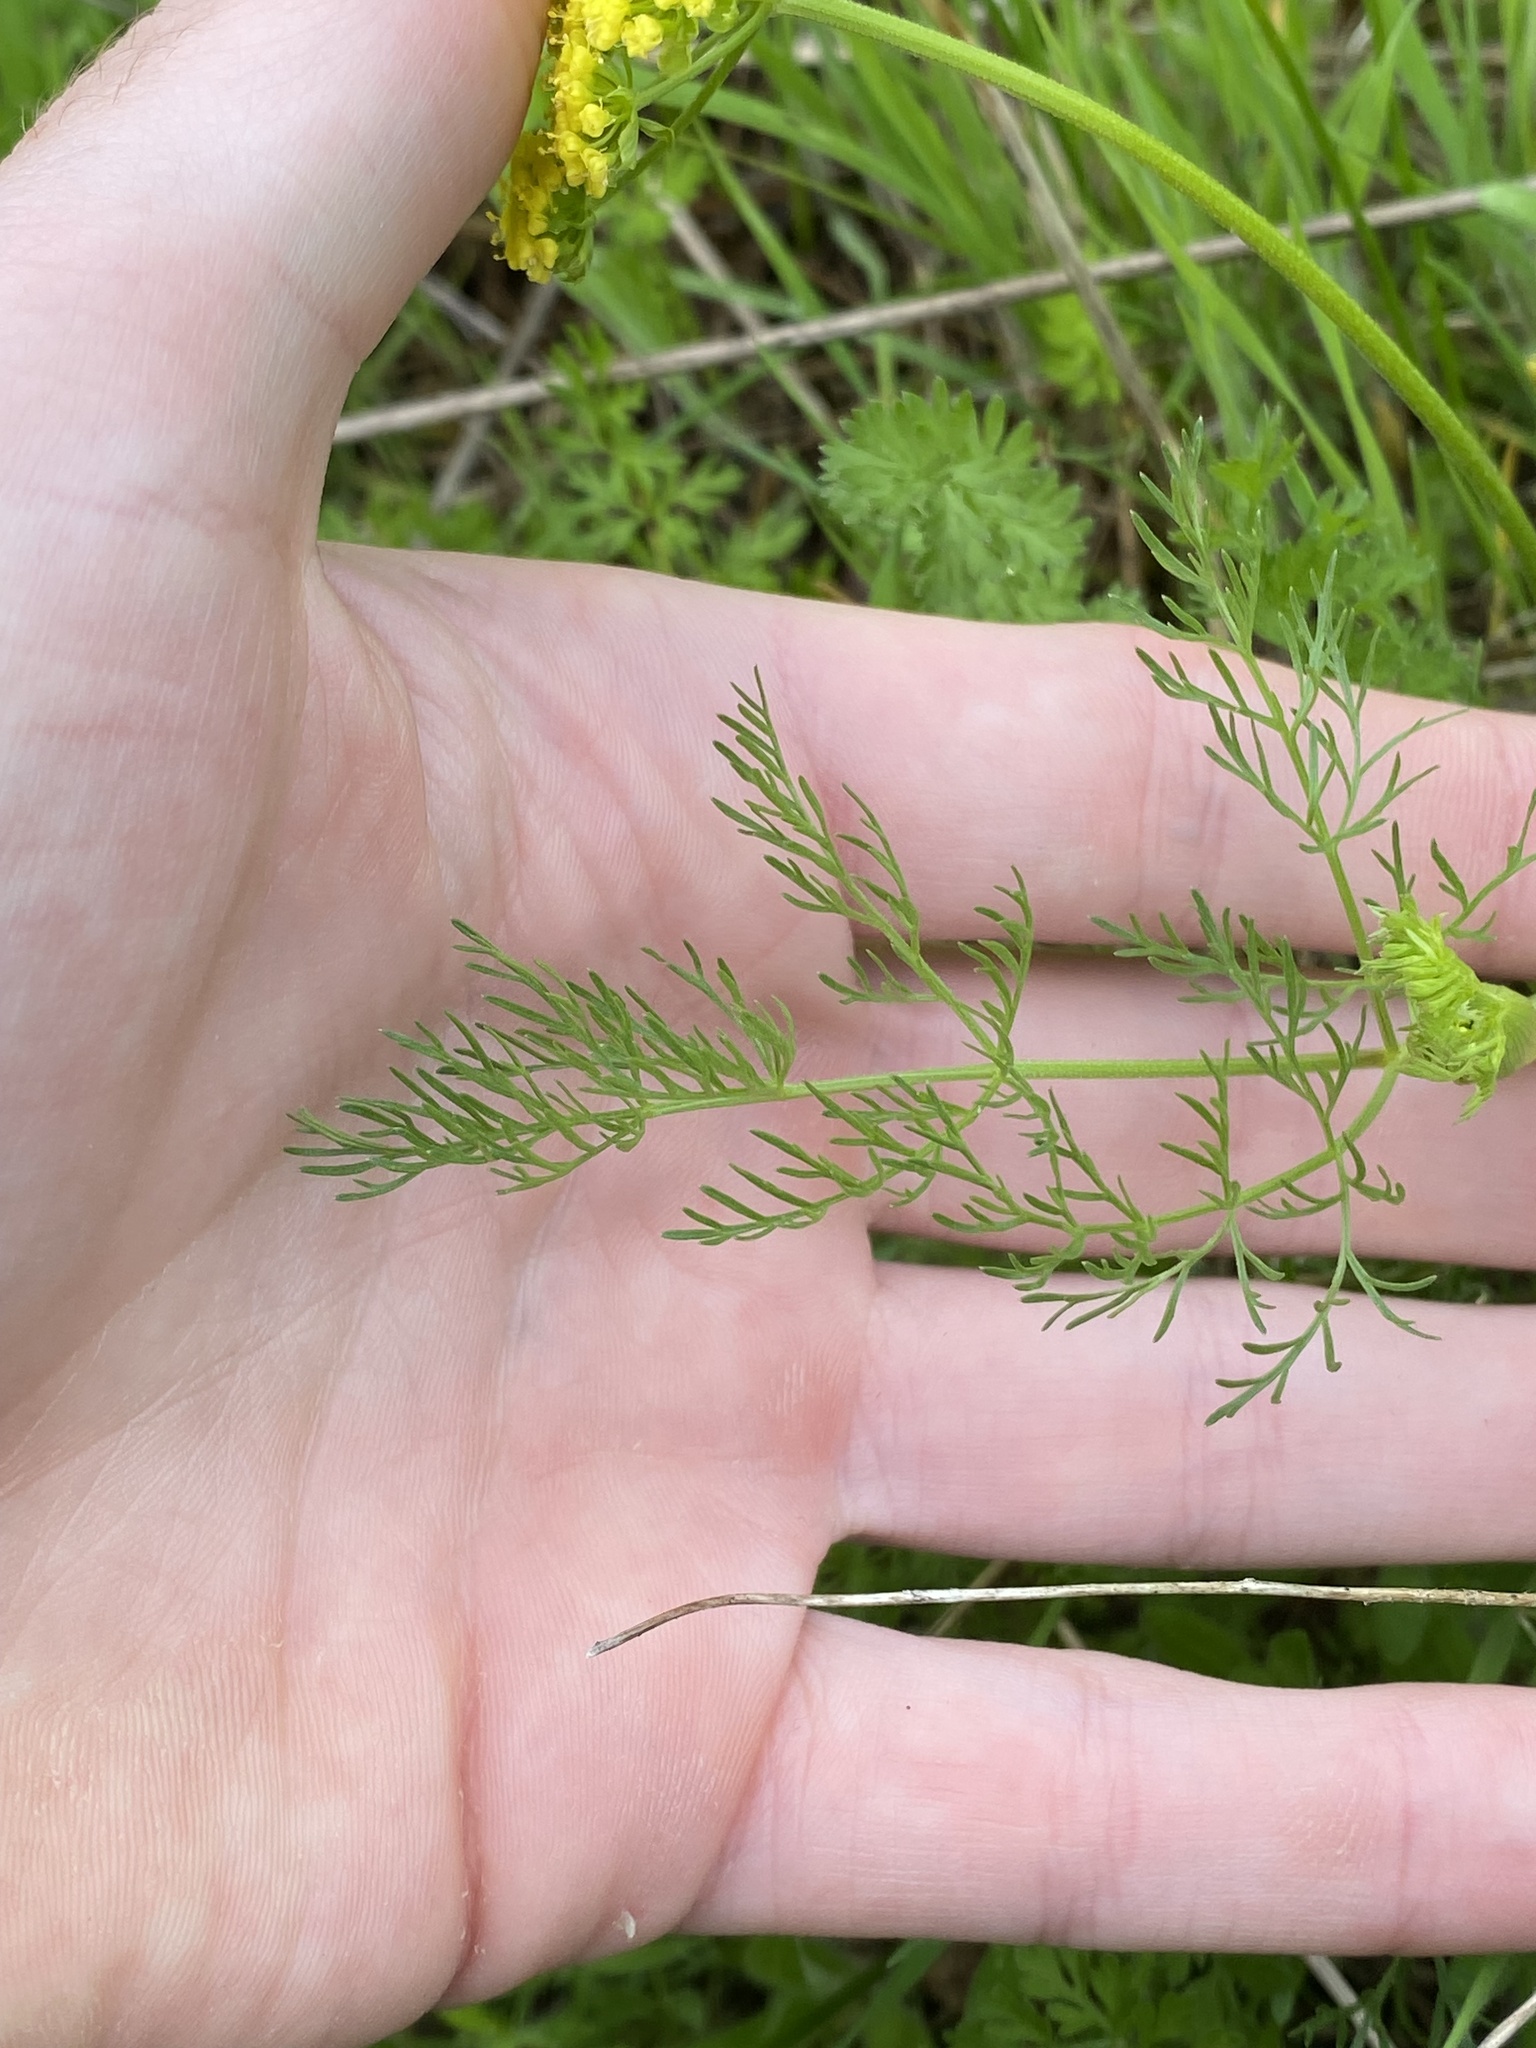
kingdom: Plantae
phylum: Tracheophyta
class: Magnoliopsida
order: Apiales
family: Apiaceae
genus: Lomatium
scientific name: Lomatium utriculatum
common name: Fine-leaf desert-parsley
